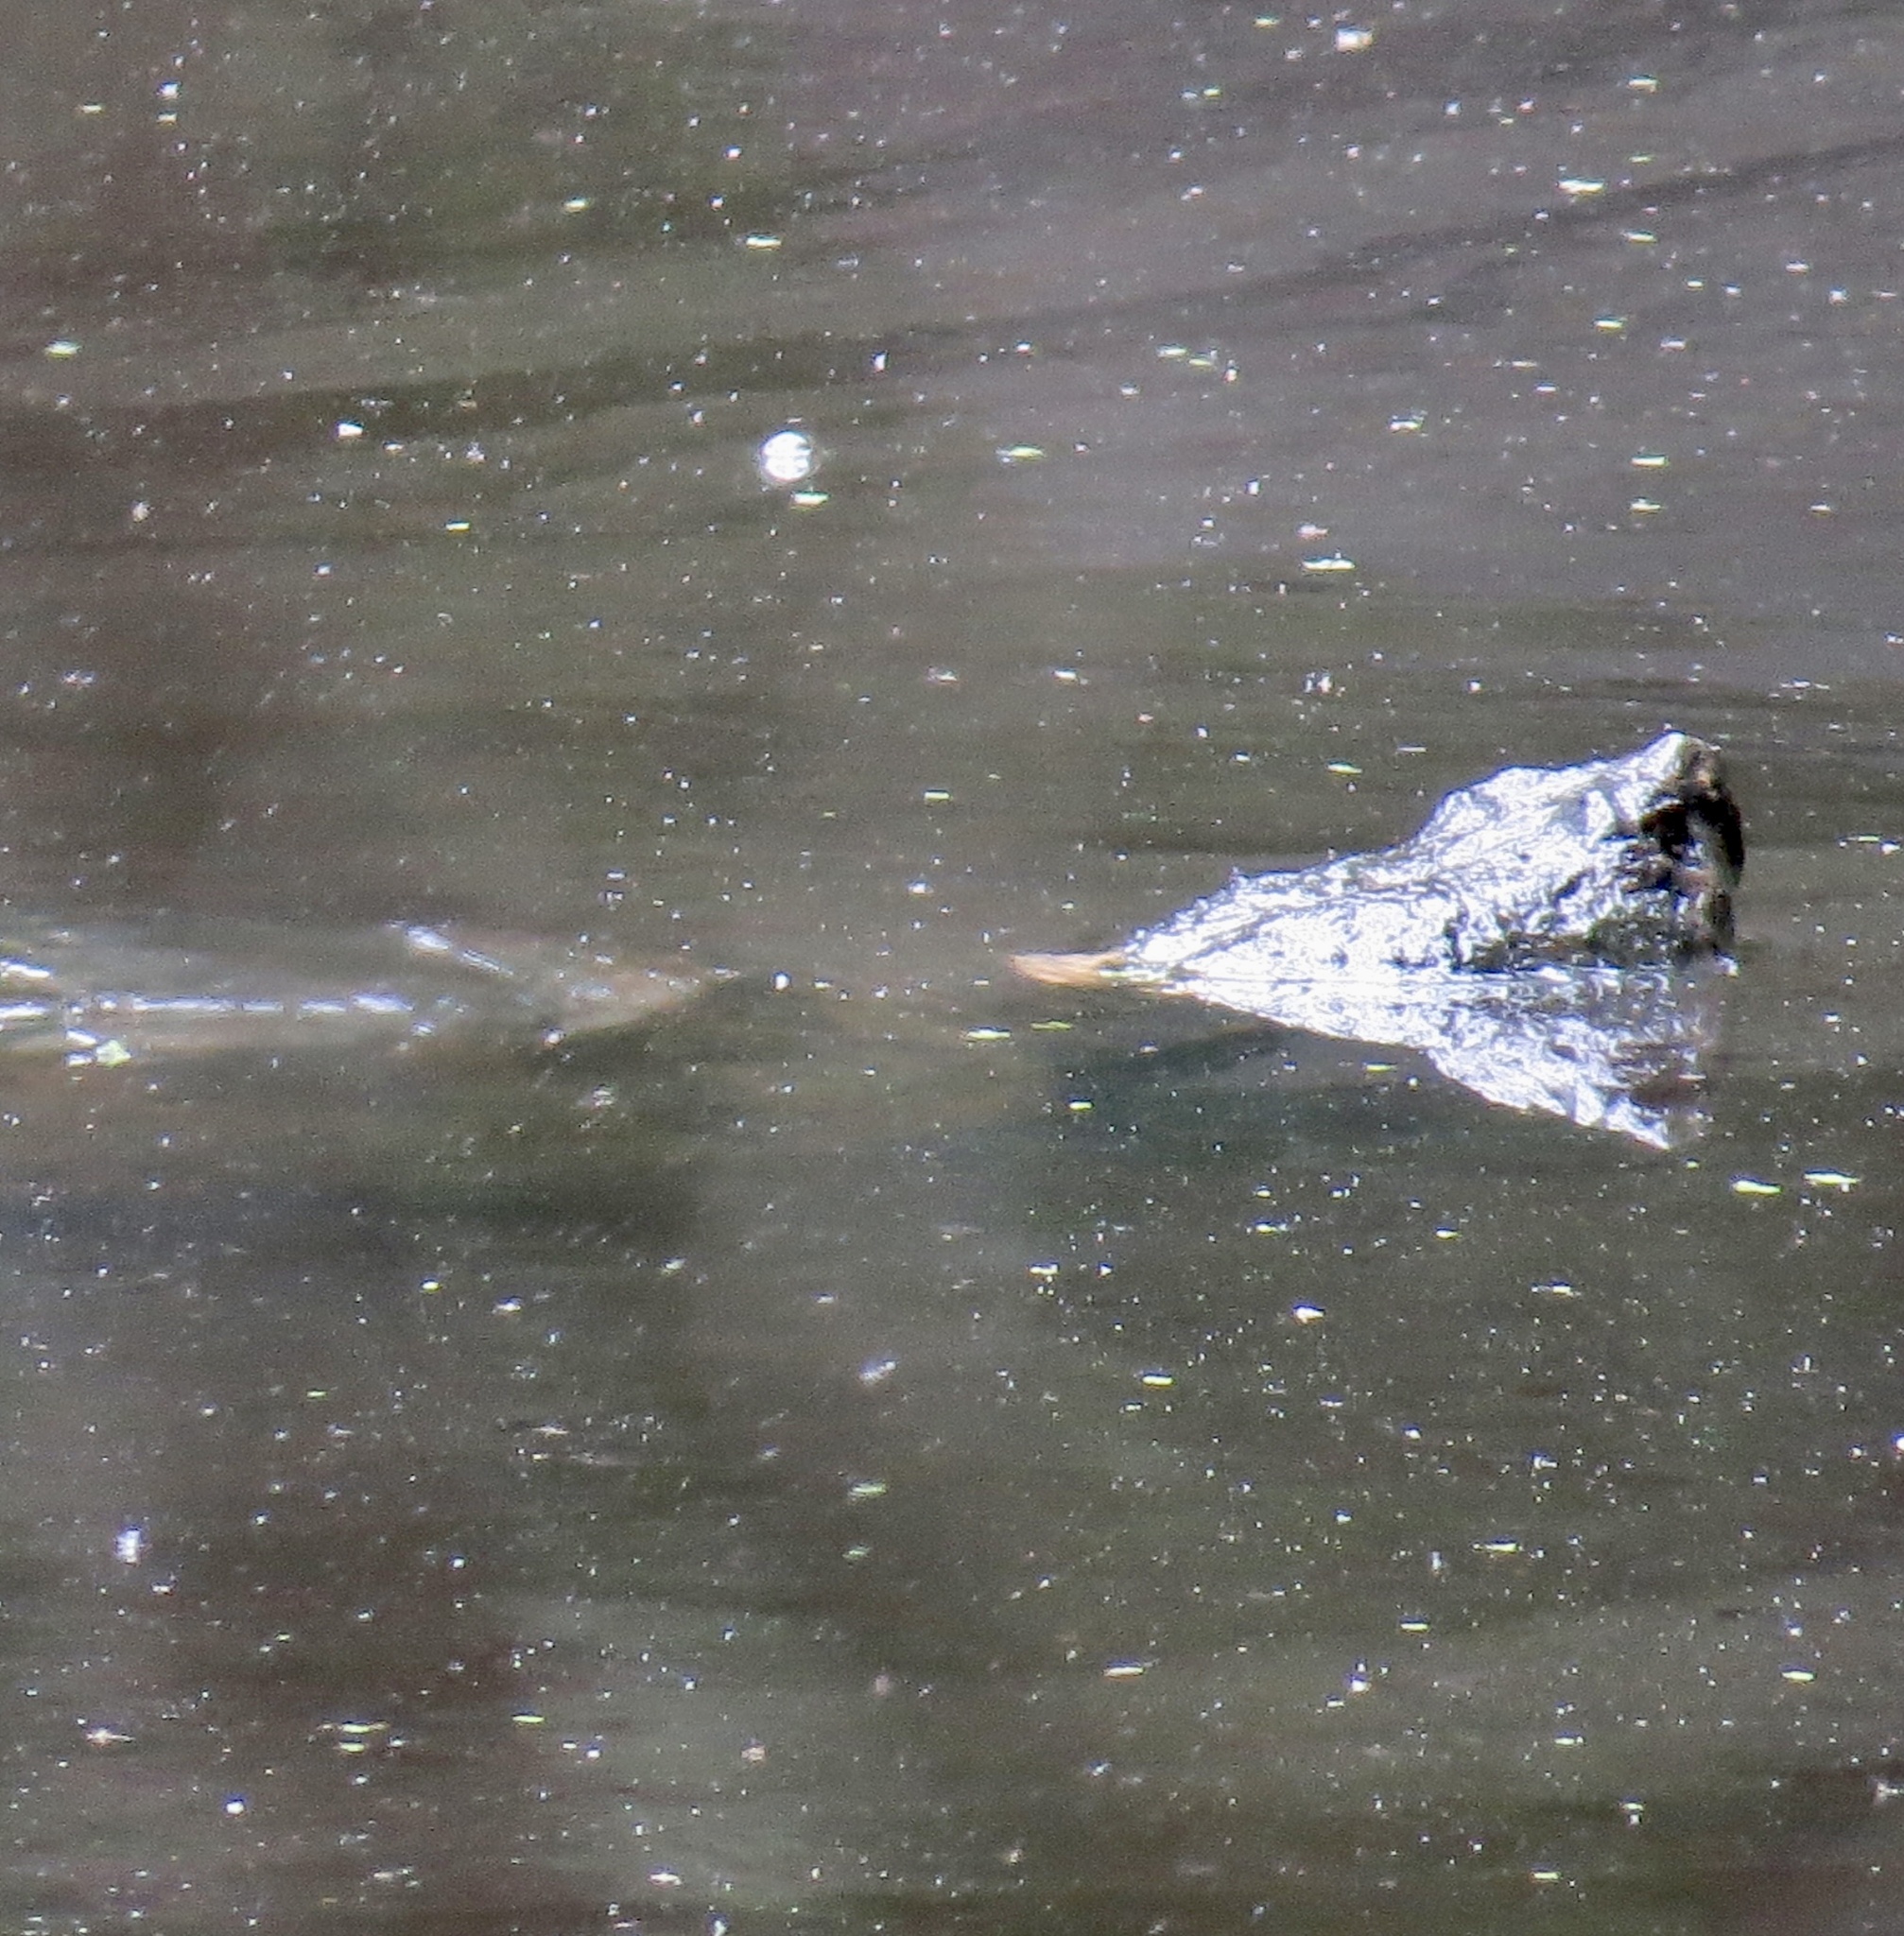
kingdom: Animalia
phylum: Chordata
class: Testudines
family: Chelydridae
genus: Chelydra
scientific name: Chelydra serpentina
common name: Common snapping turtle
